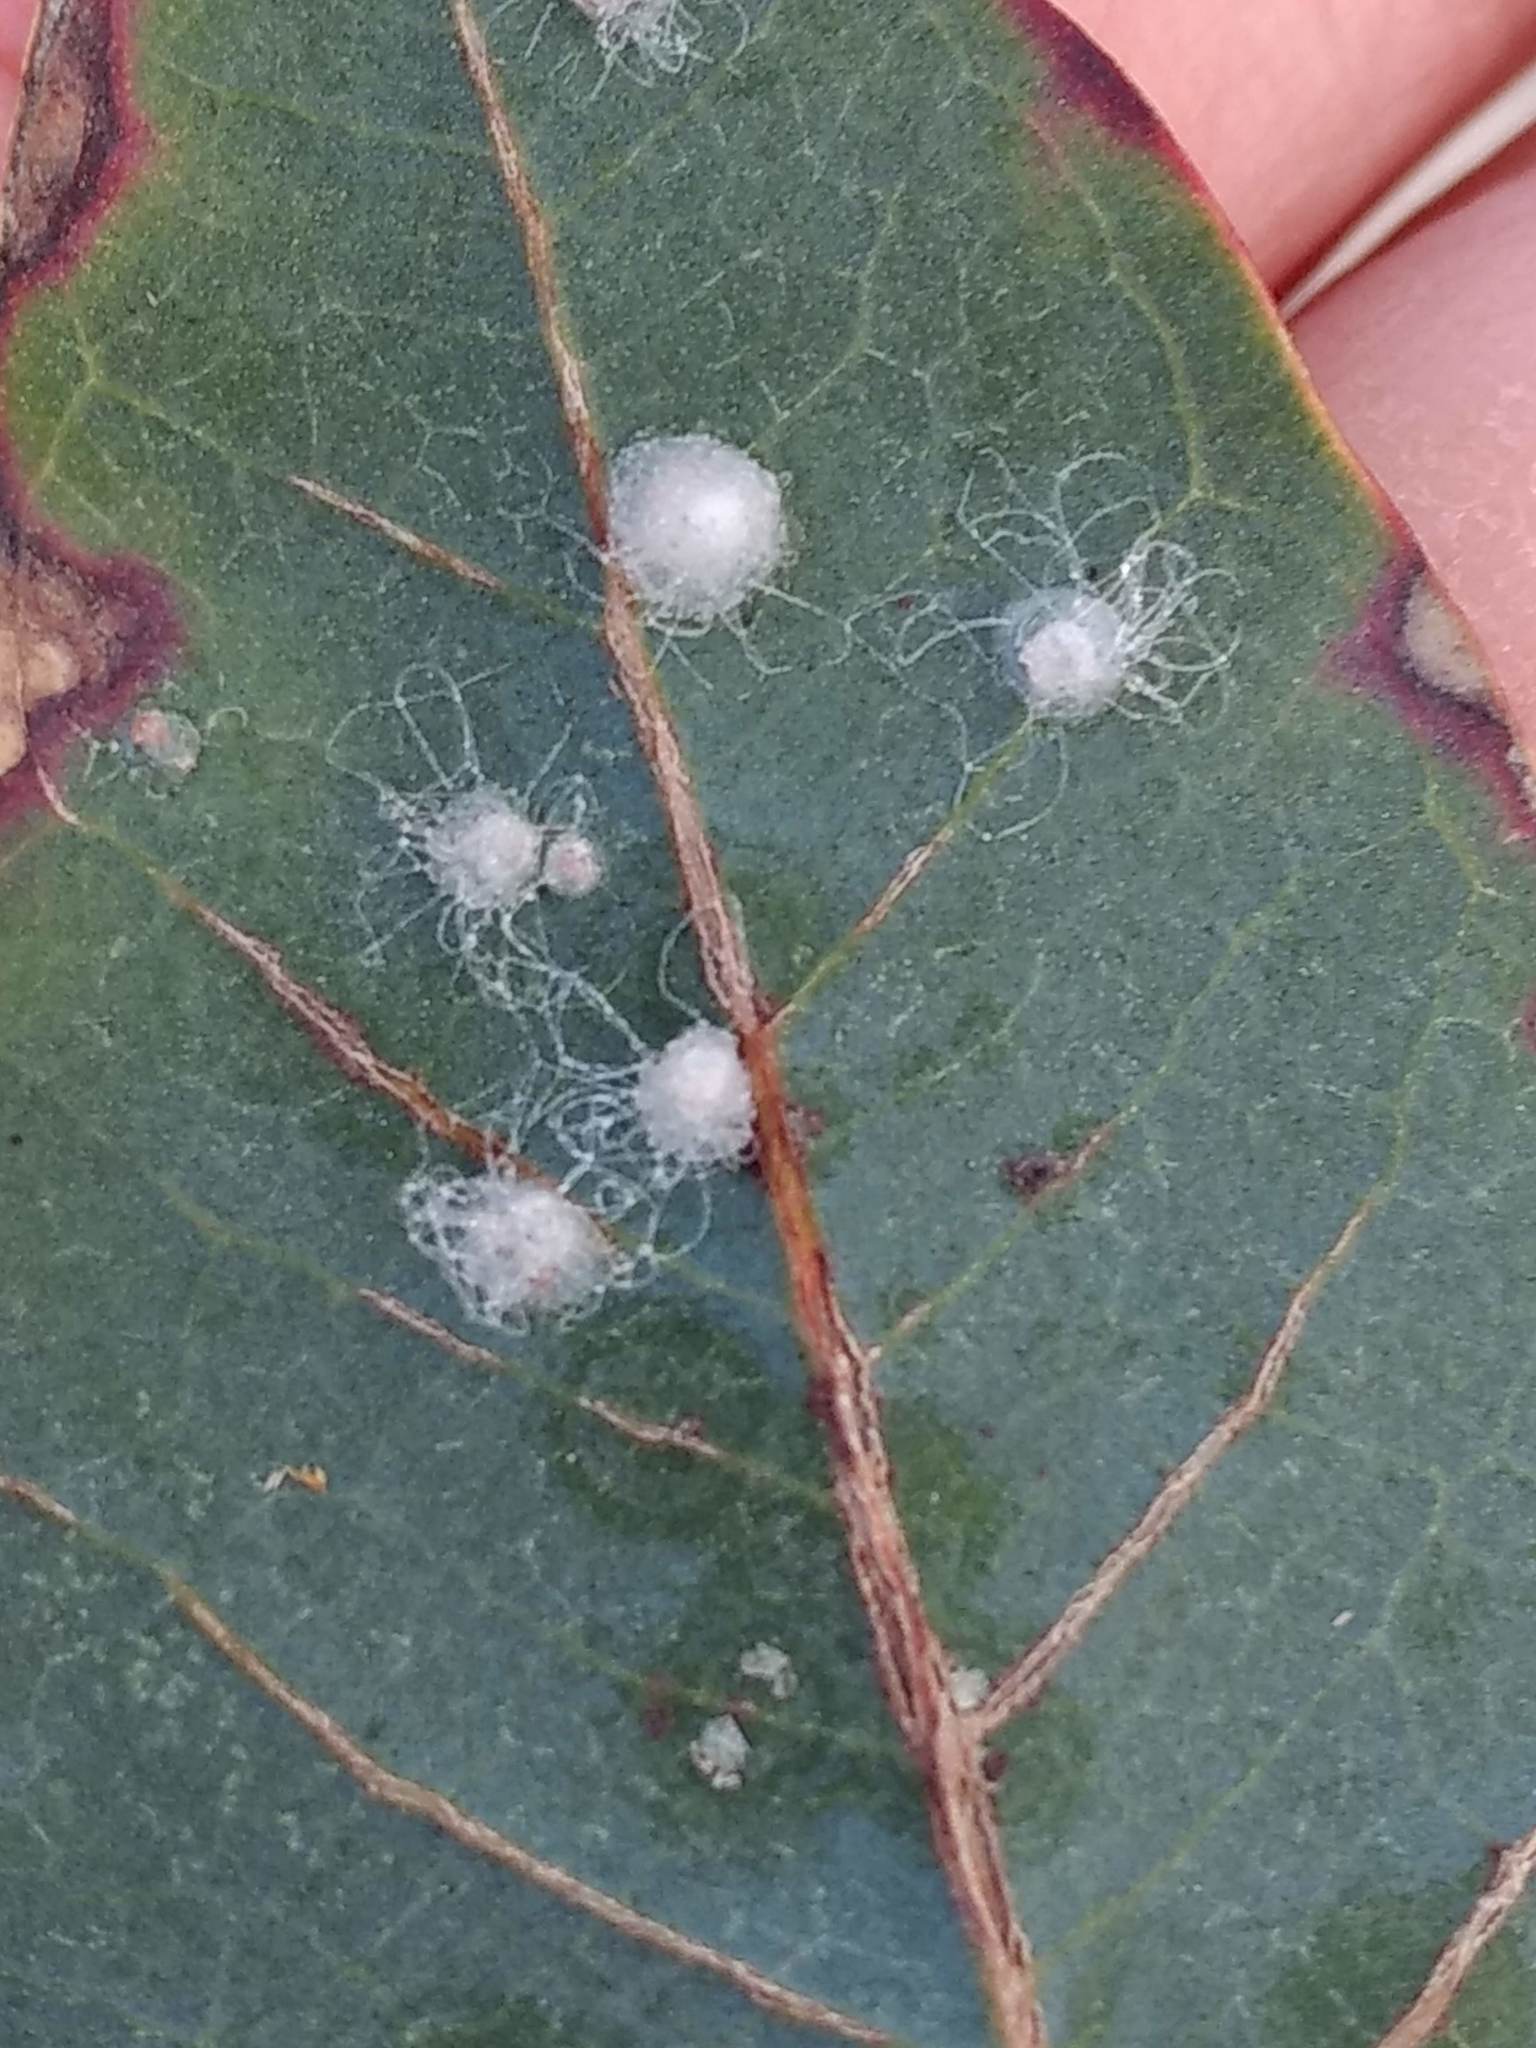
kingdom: Animalia
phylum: Arthropoda
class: Insecta
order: Hemiptera
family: Aphalaridae
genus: Glycaspis
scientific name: Glycaspis brimblecombei
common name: Red gum lerp psyllid
